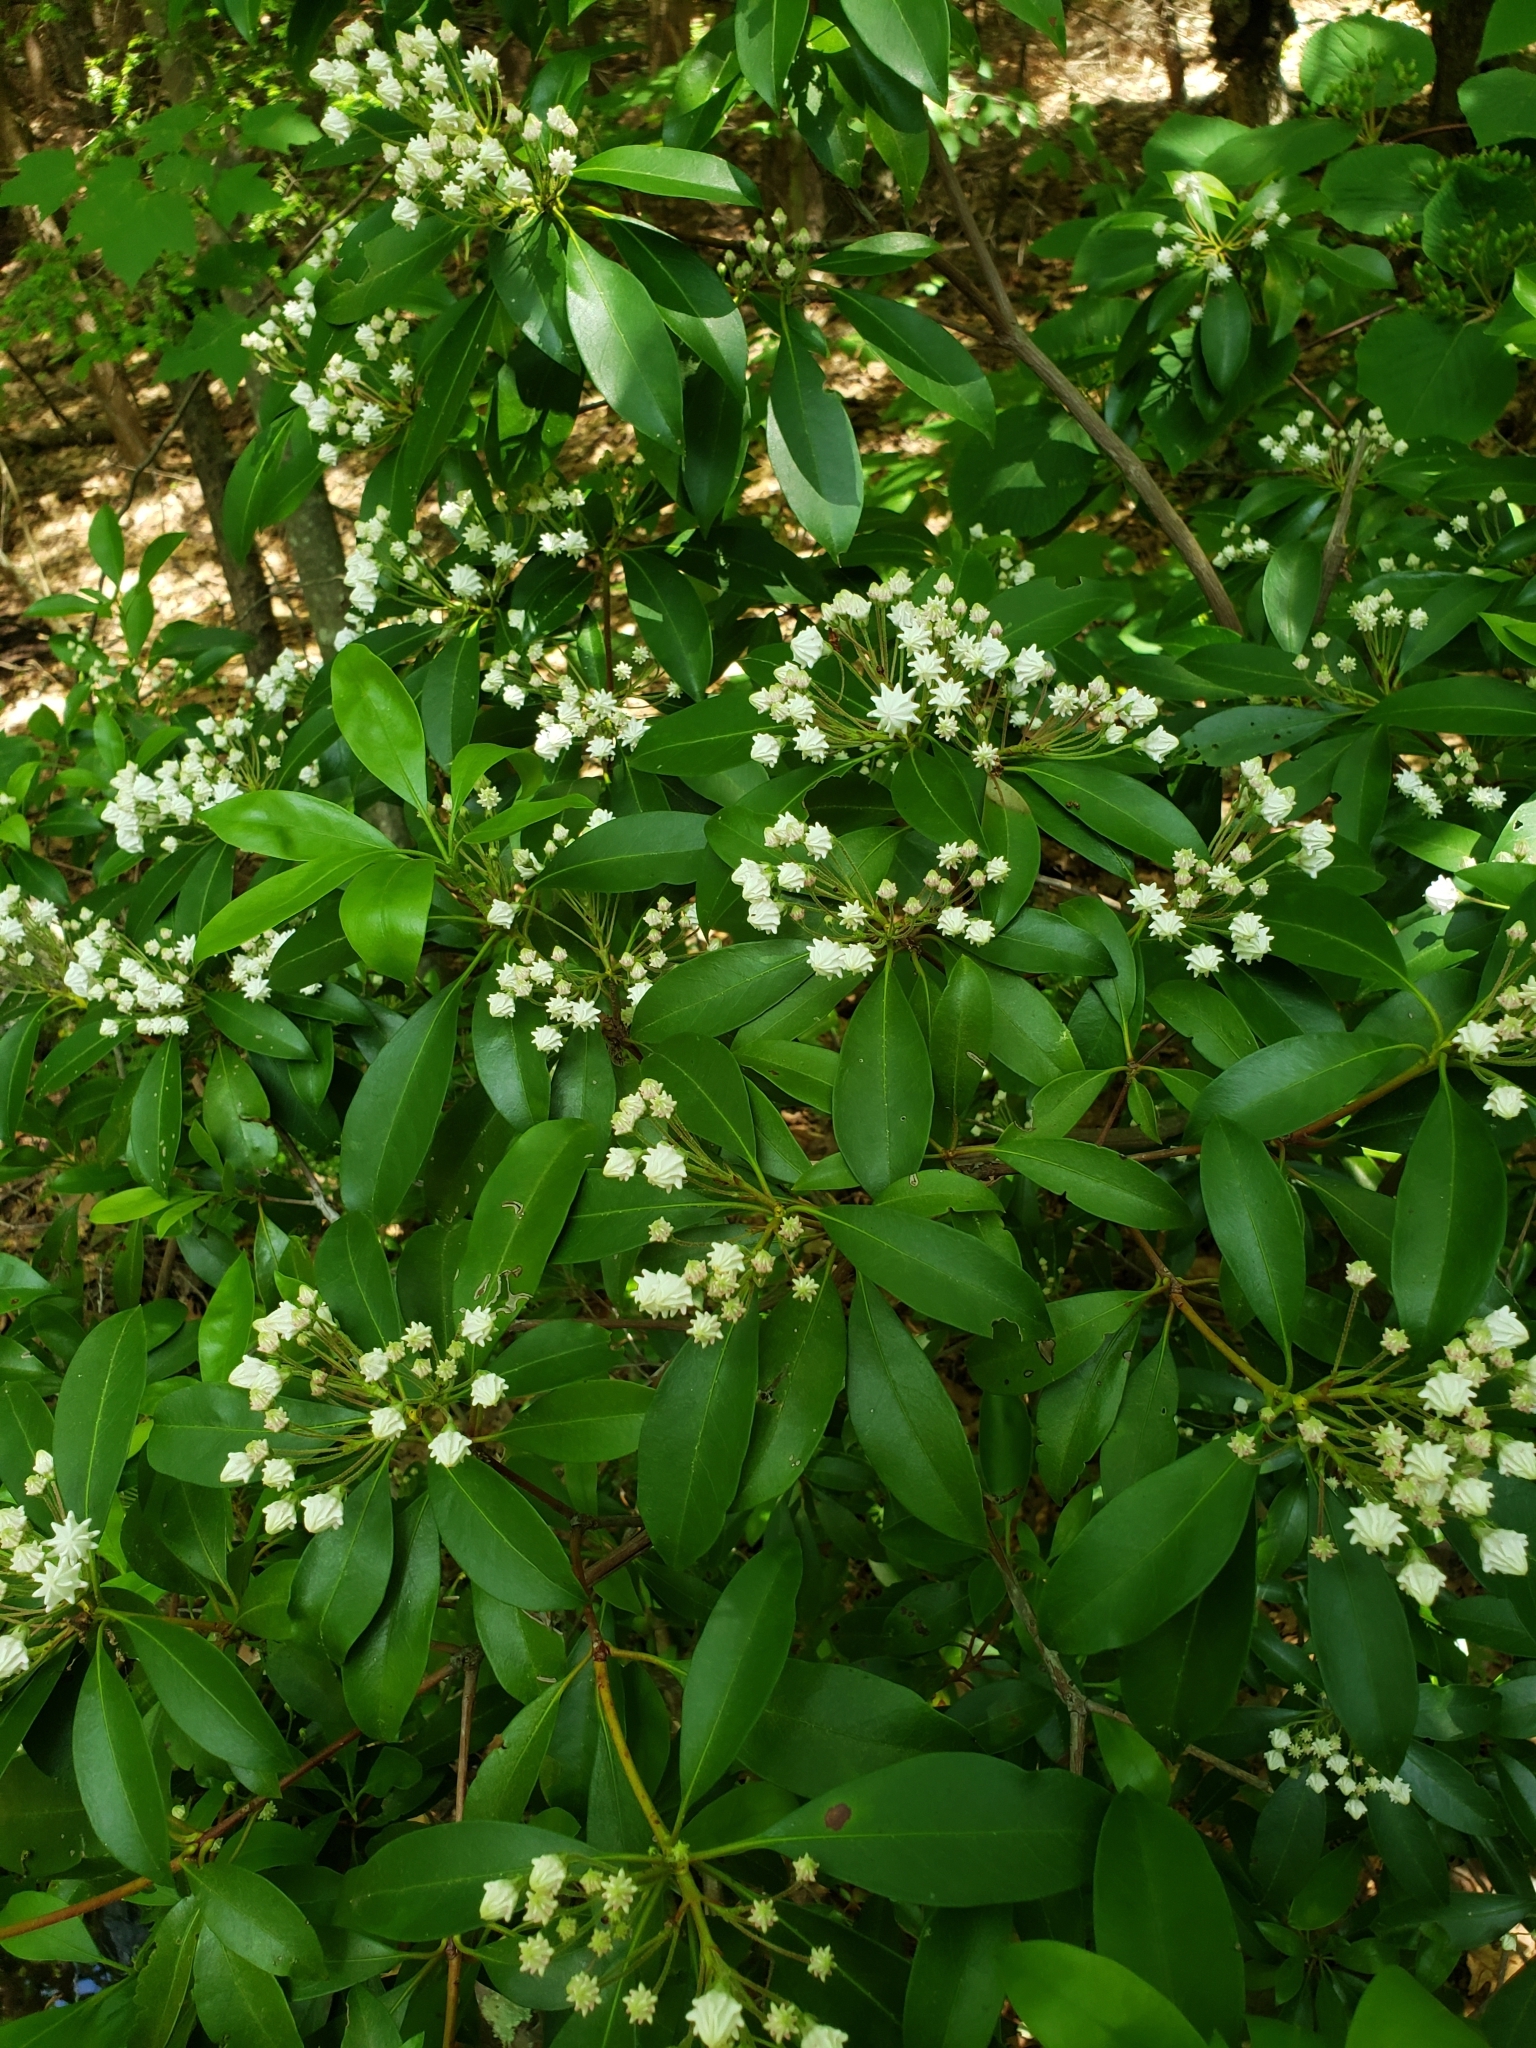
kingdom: Plantae
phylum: Tracheophyta
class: Magnoliopsida
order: Ericales
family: Ericaceae
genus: Kalmia
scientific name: Kalmia latifolia
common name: Mountain-laurel
